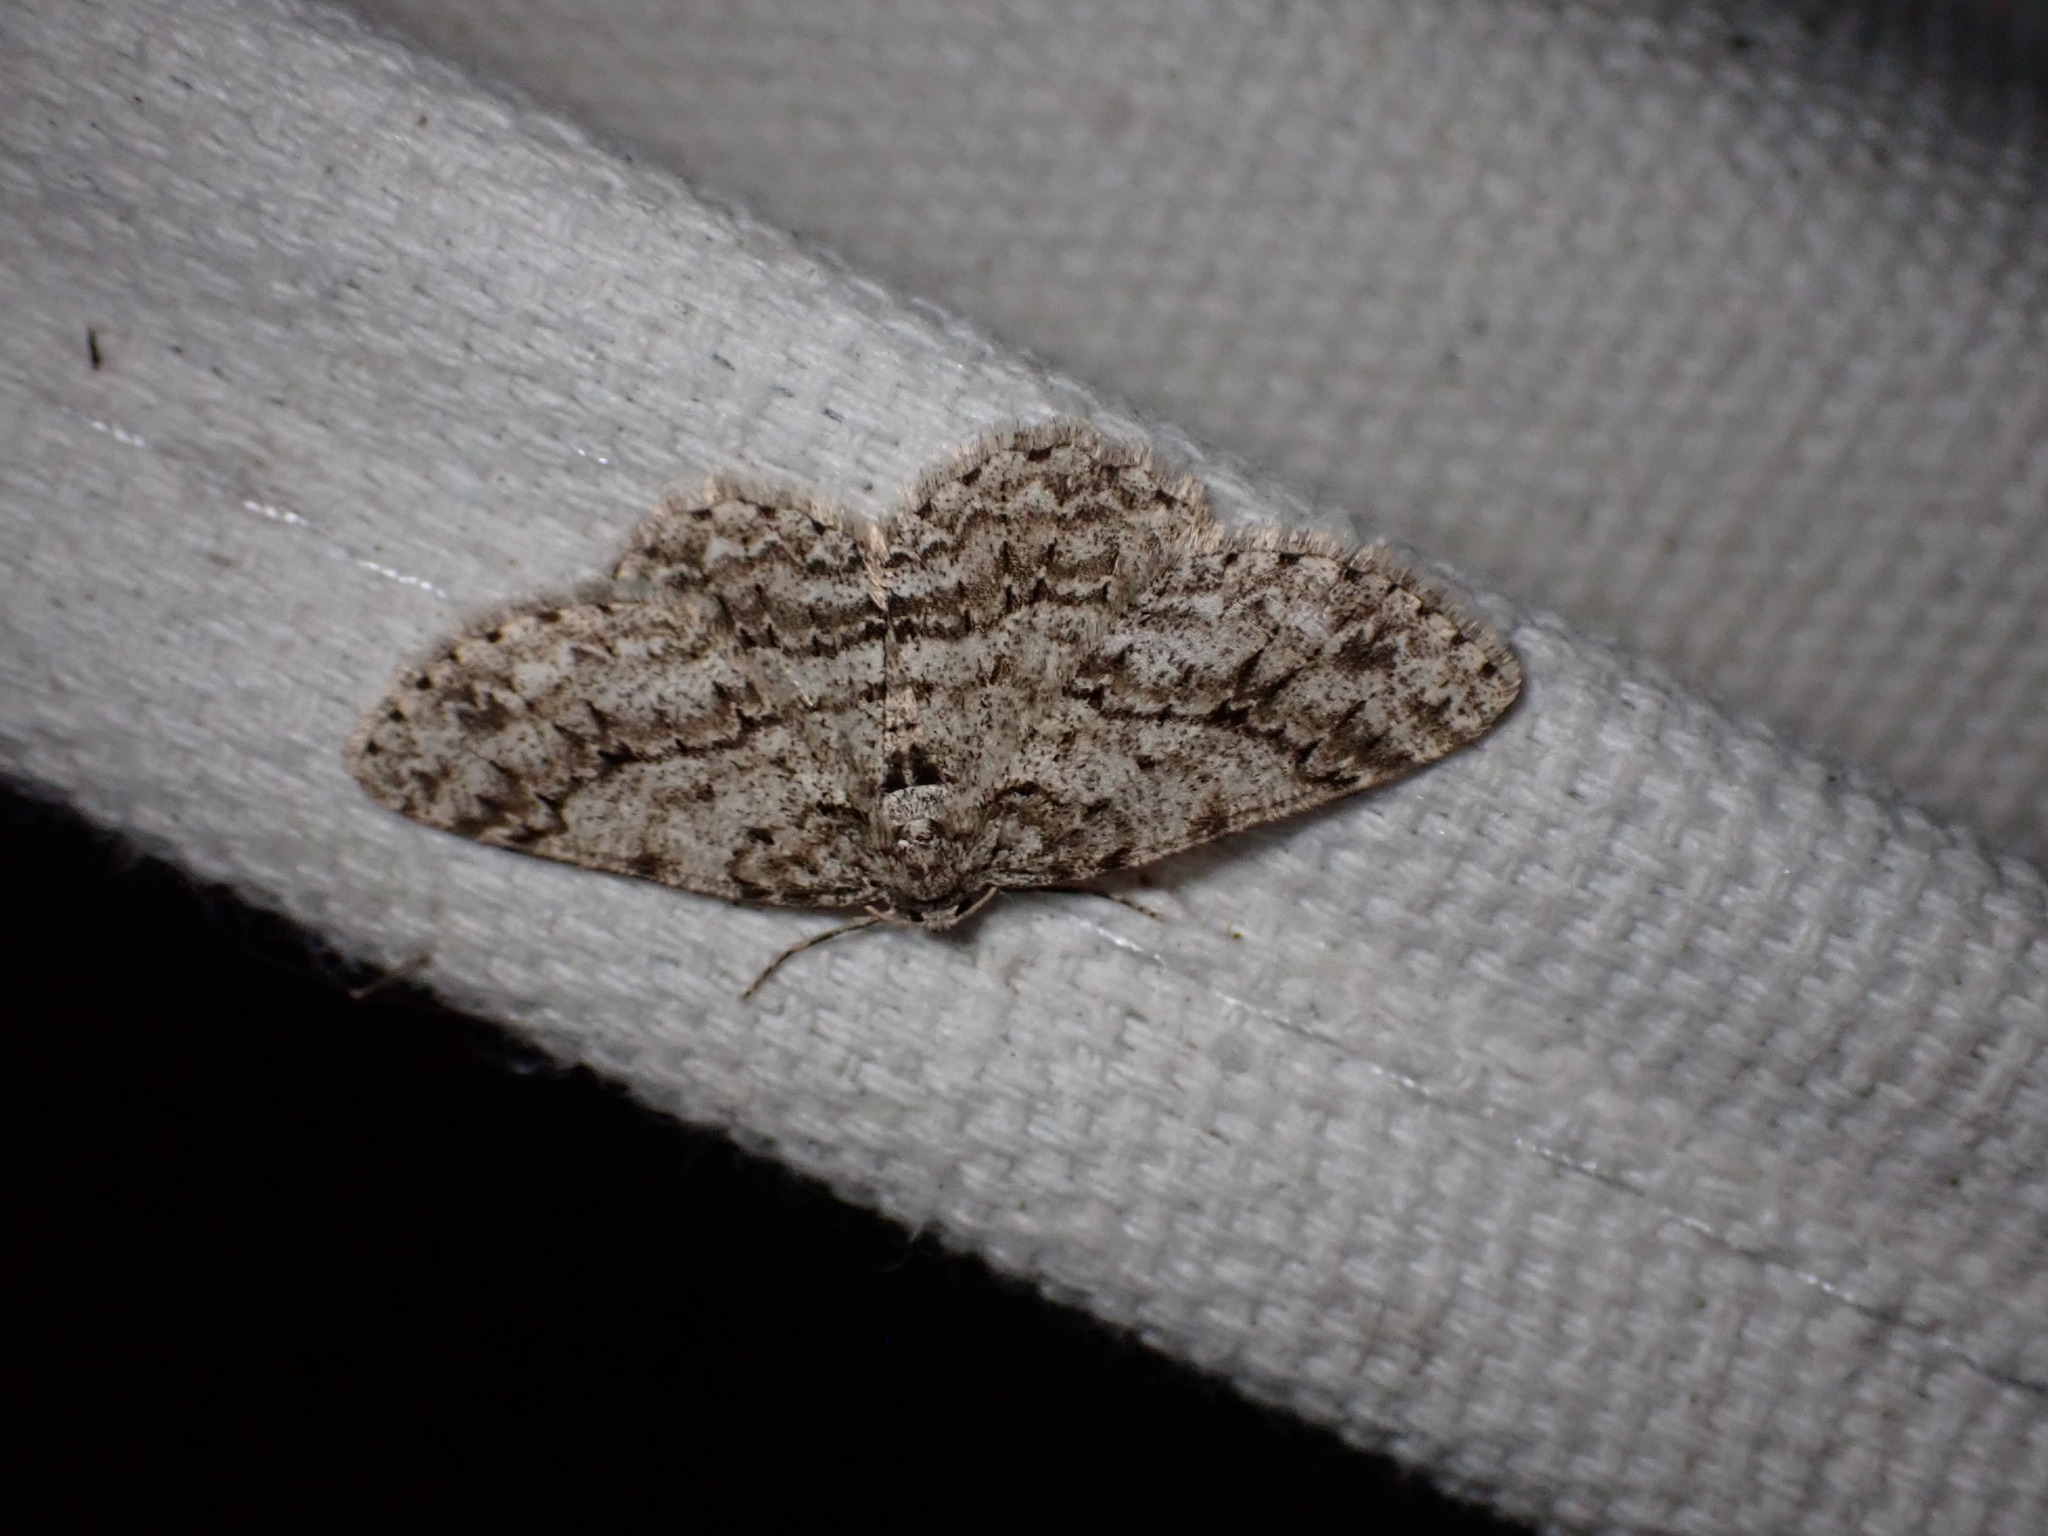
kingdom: Animalia
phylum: Arthropoda
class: Insecta
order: Lepidoptera
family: Geometridae
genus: Ectropis
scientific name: Ectropis crepuscularia
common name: Engrailed
